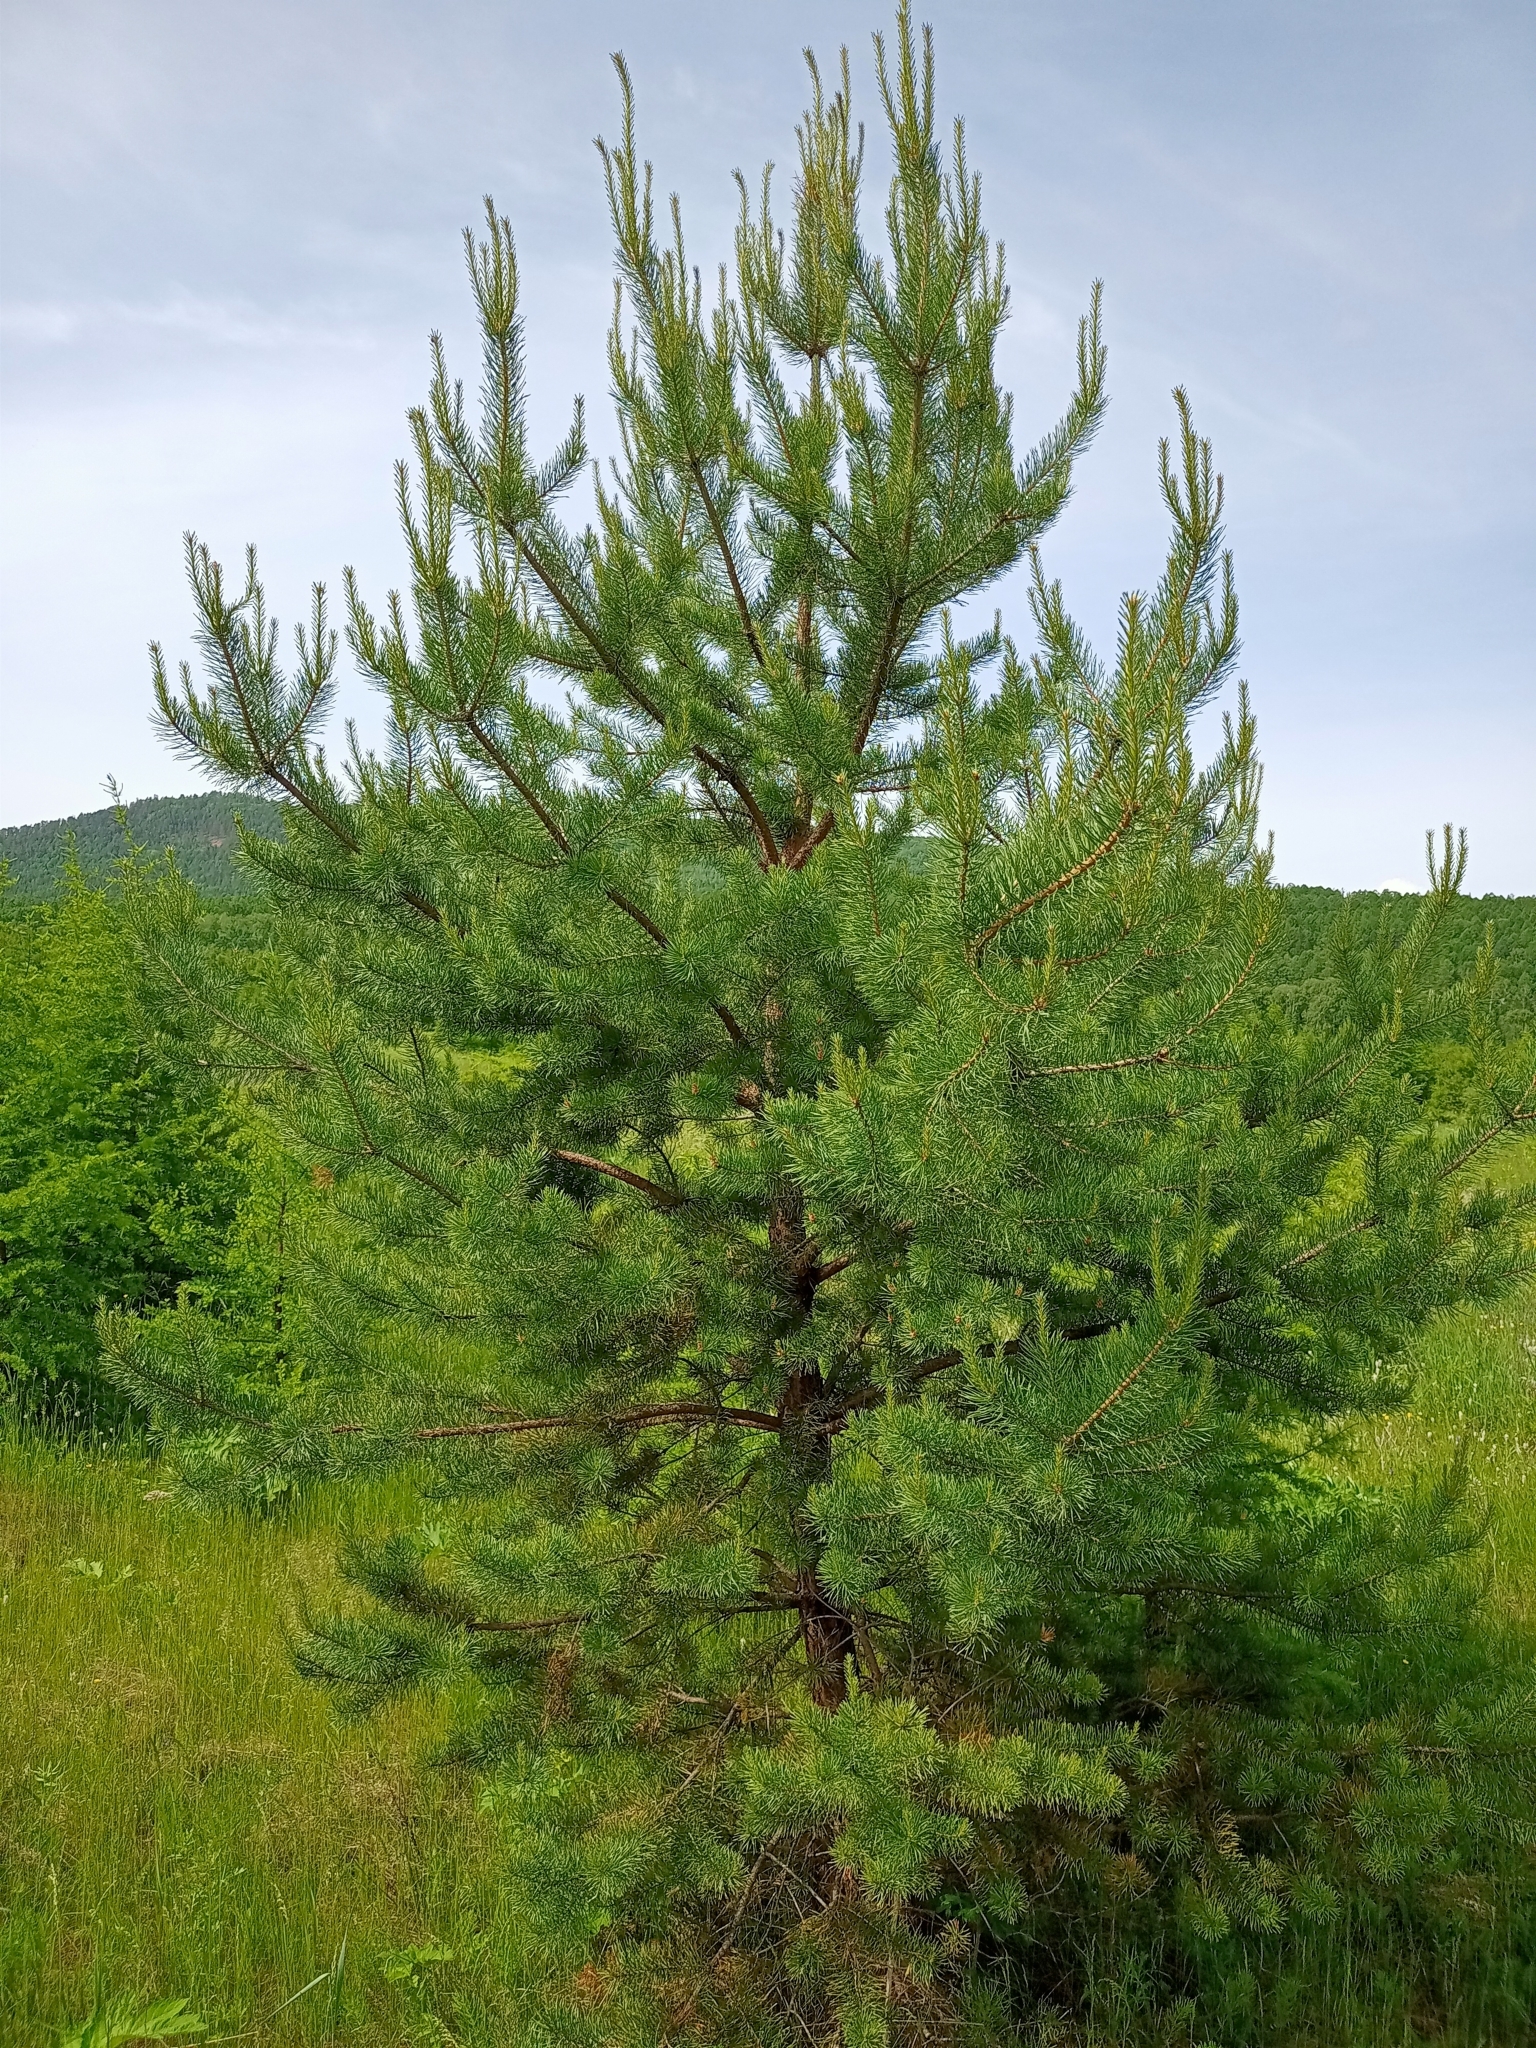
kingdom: Plantae
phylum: Tracheophyta
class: Pinopsida
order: Pinales
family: Pinaceae
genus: Pinus
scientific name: Pinus sylvestris
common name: Scots pine
